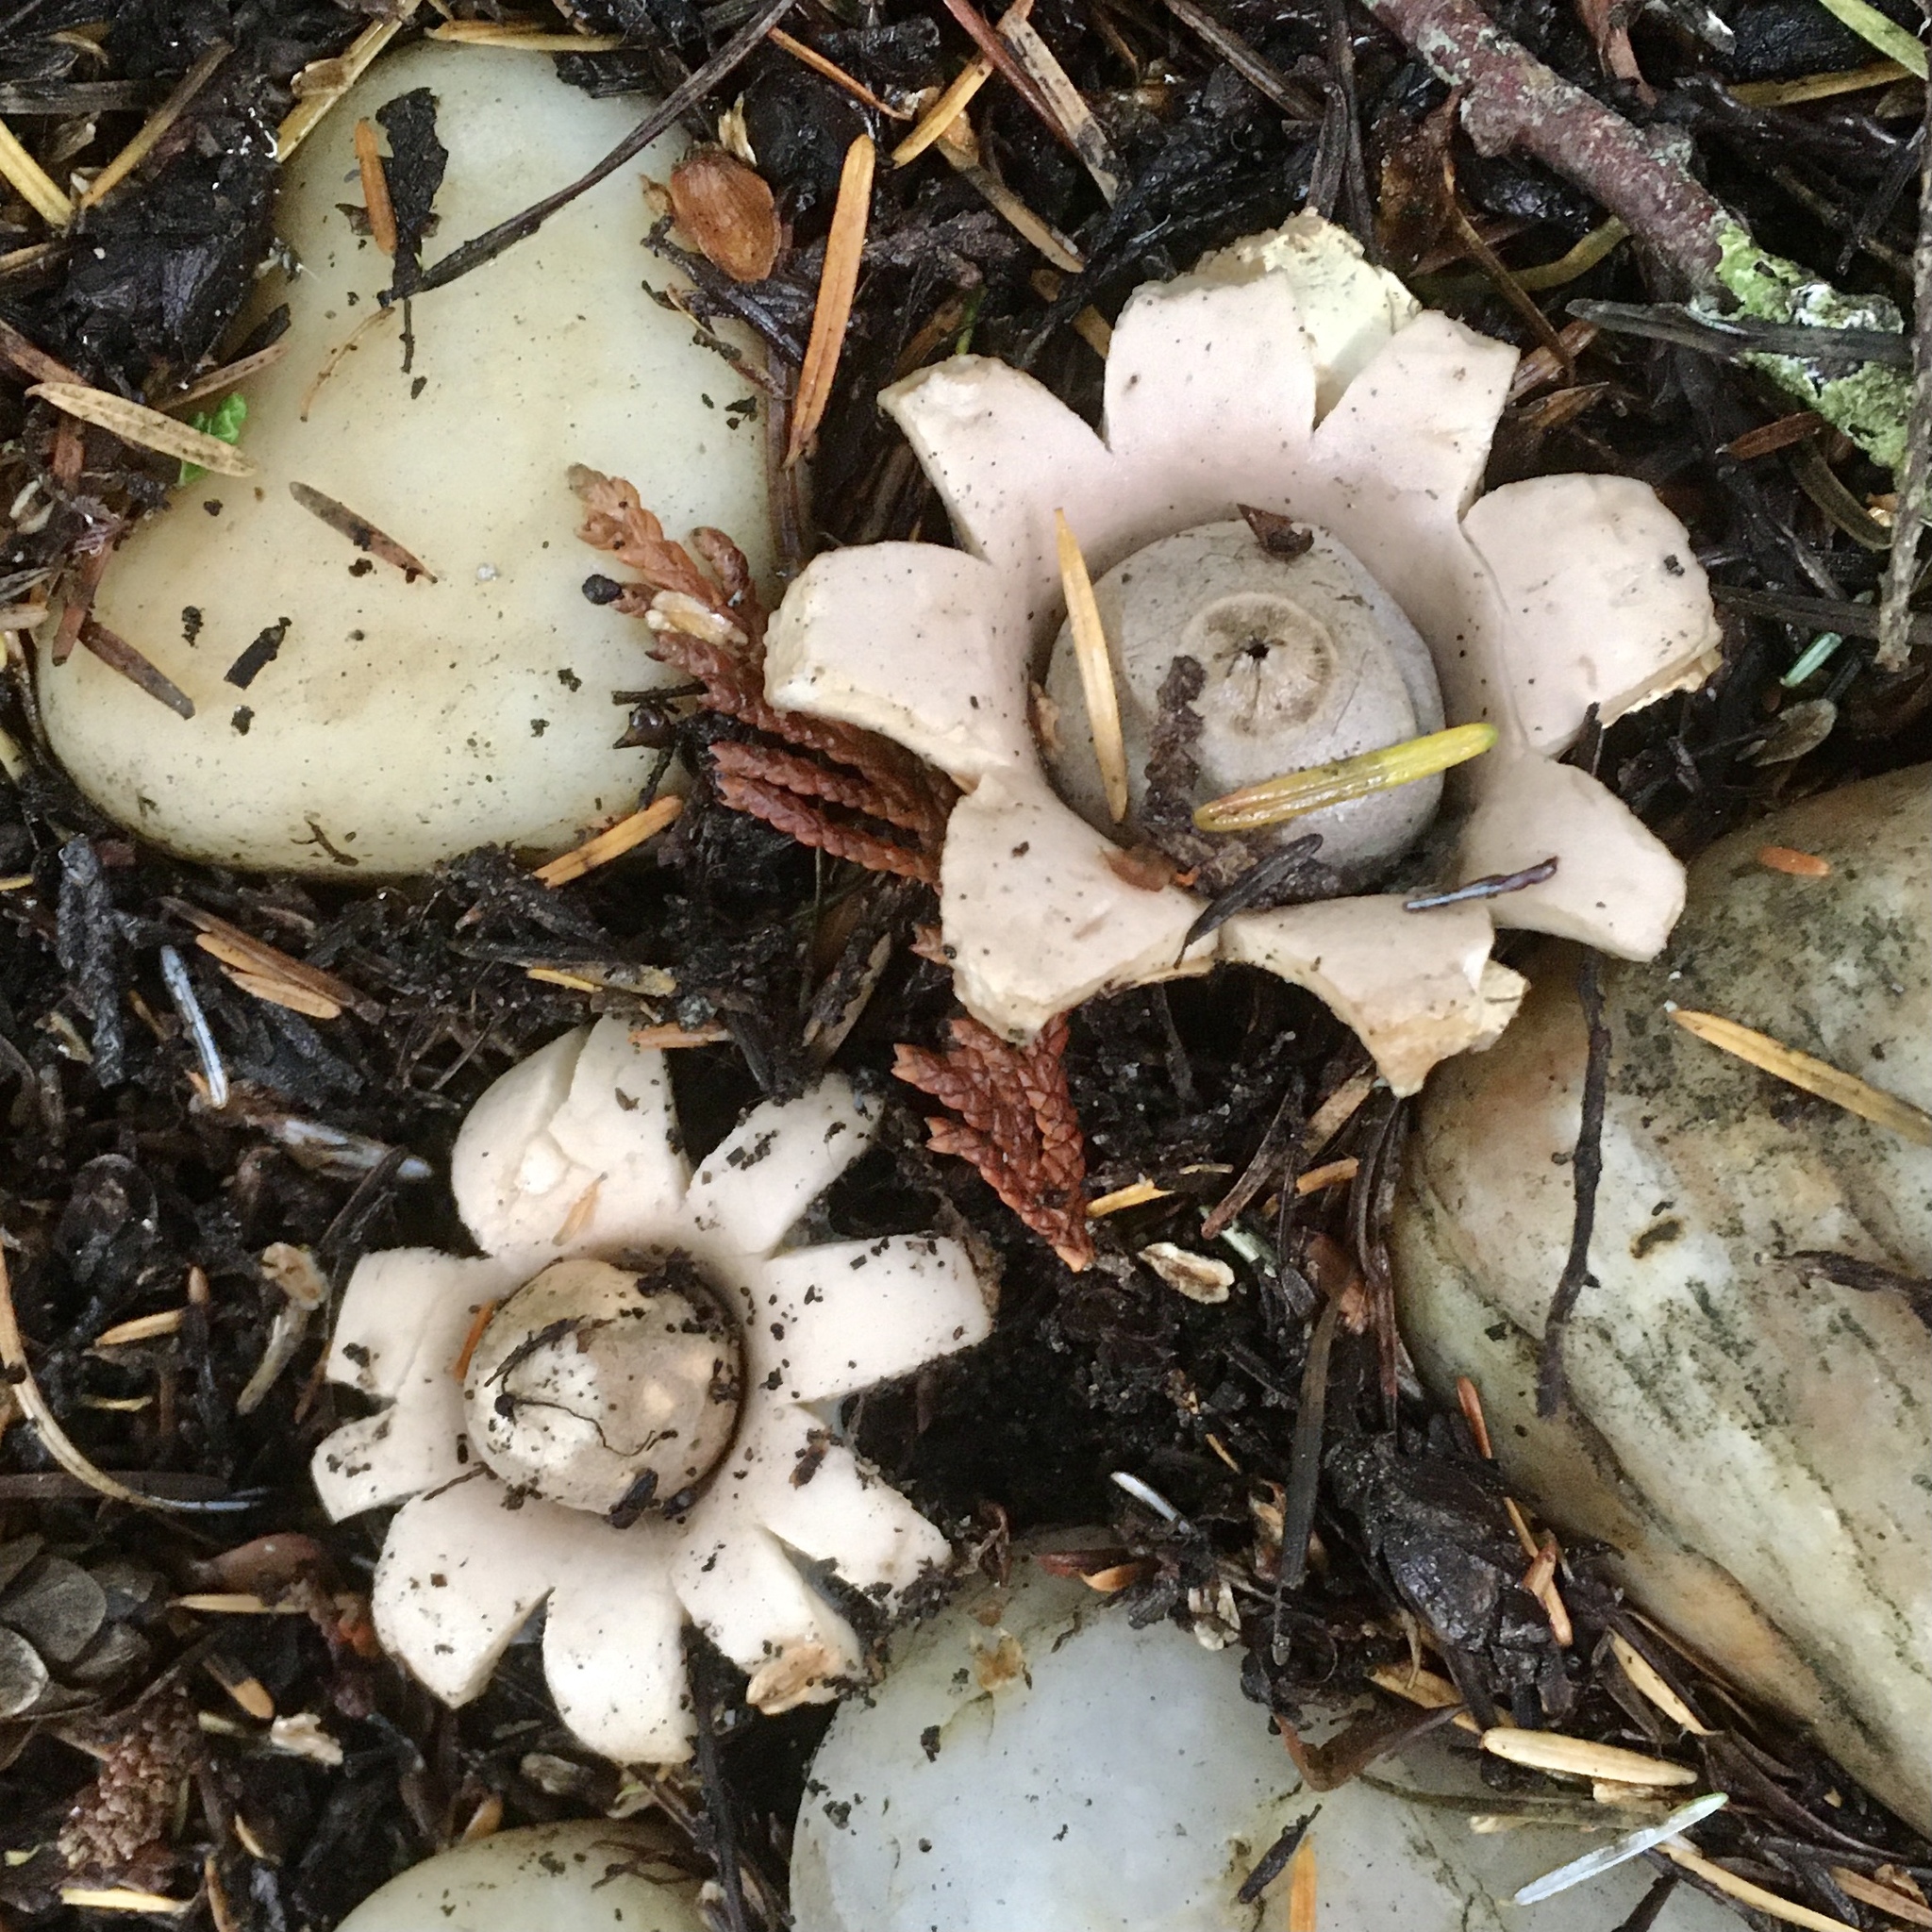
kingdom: Fungi
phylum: Basidiomycota
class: Agaricomycetes
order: Geastrales
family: Geastraceae
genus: Geastrum
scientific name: Geastrum saccatum
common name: Rounded earthstar
